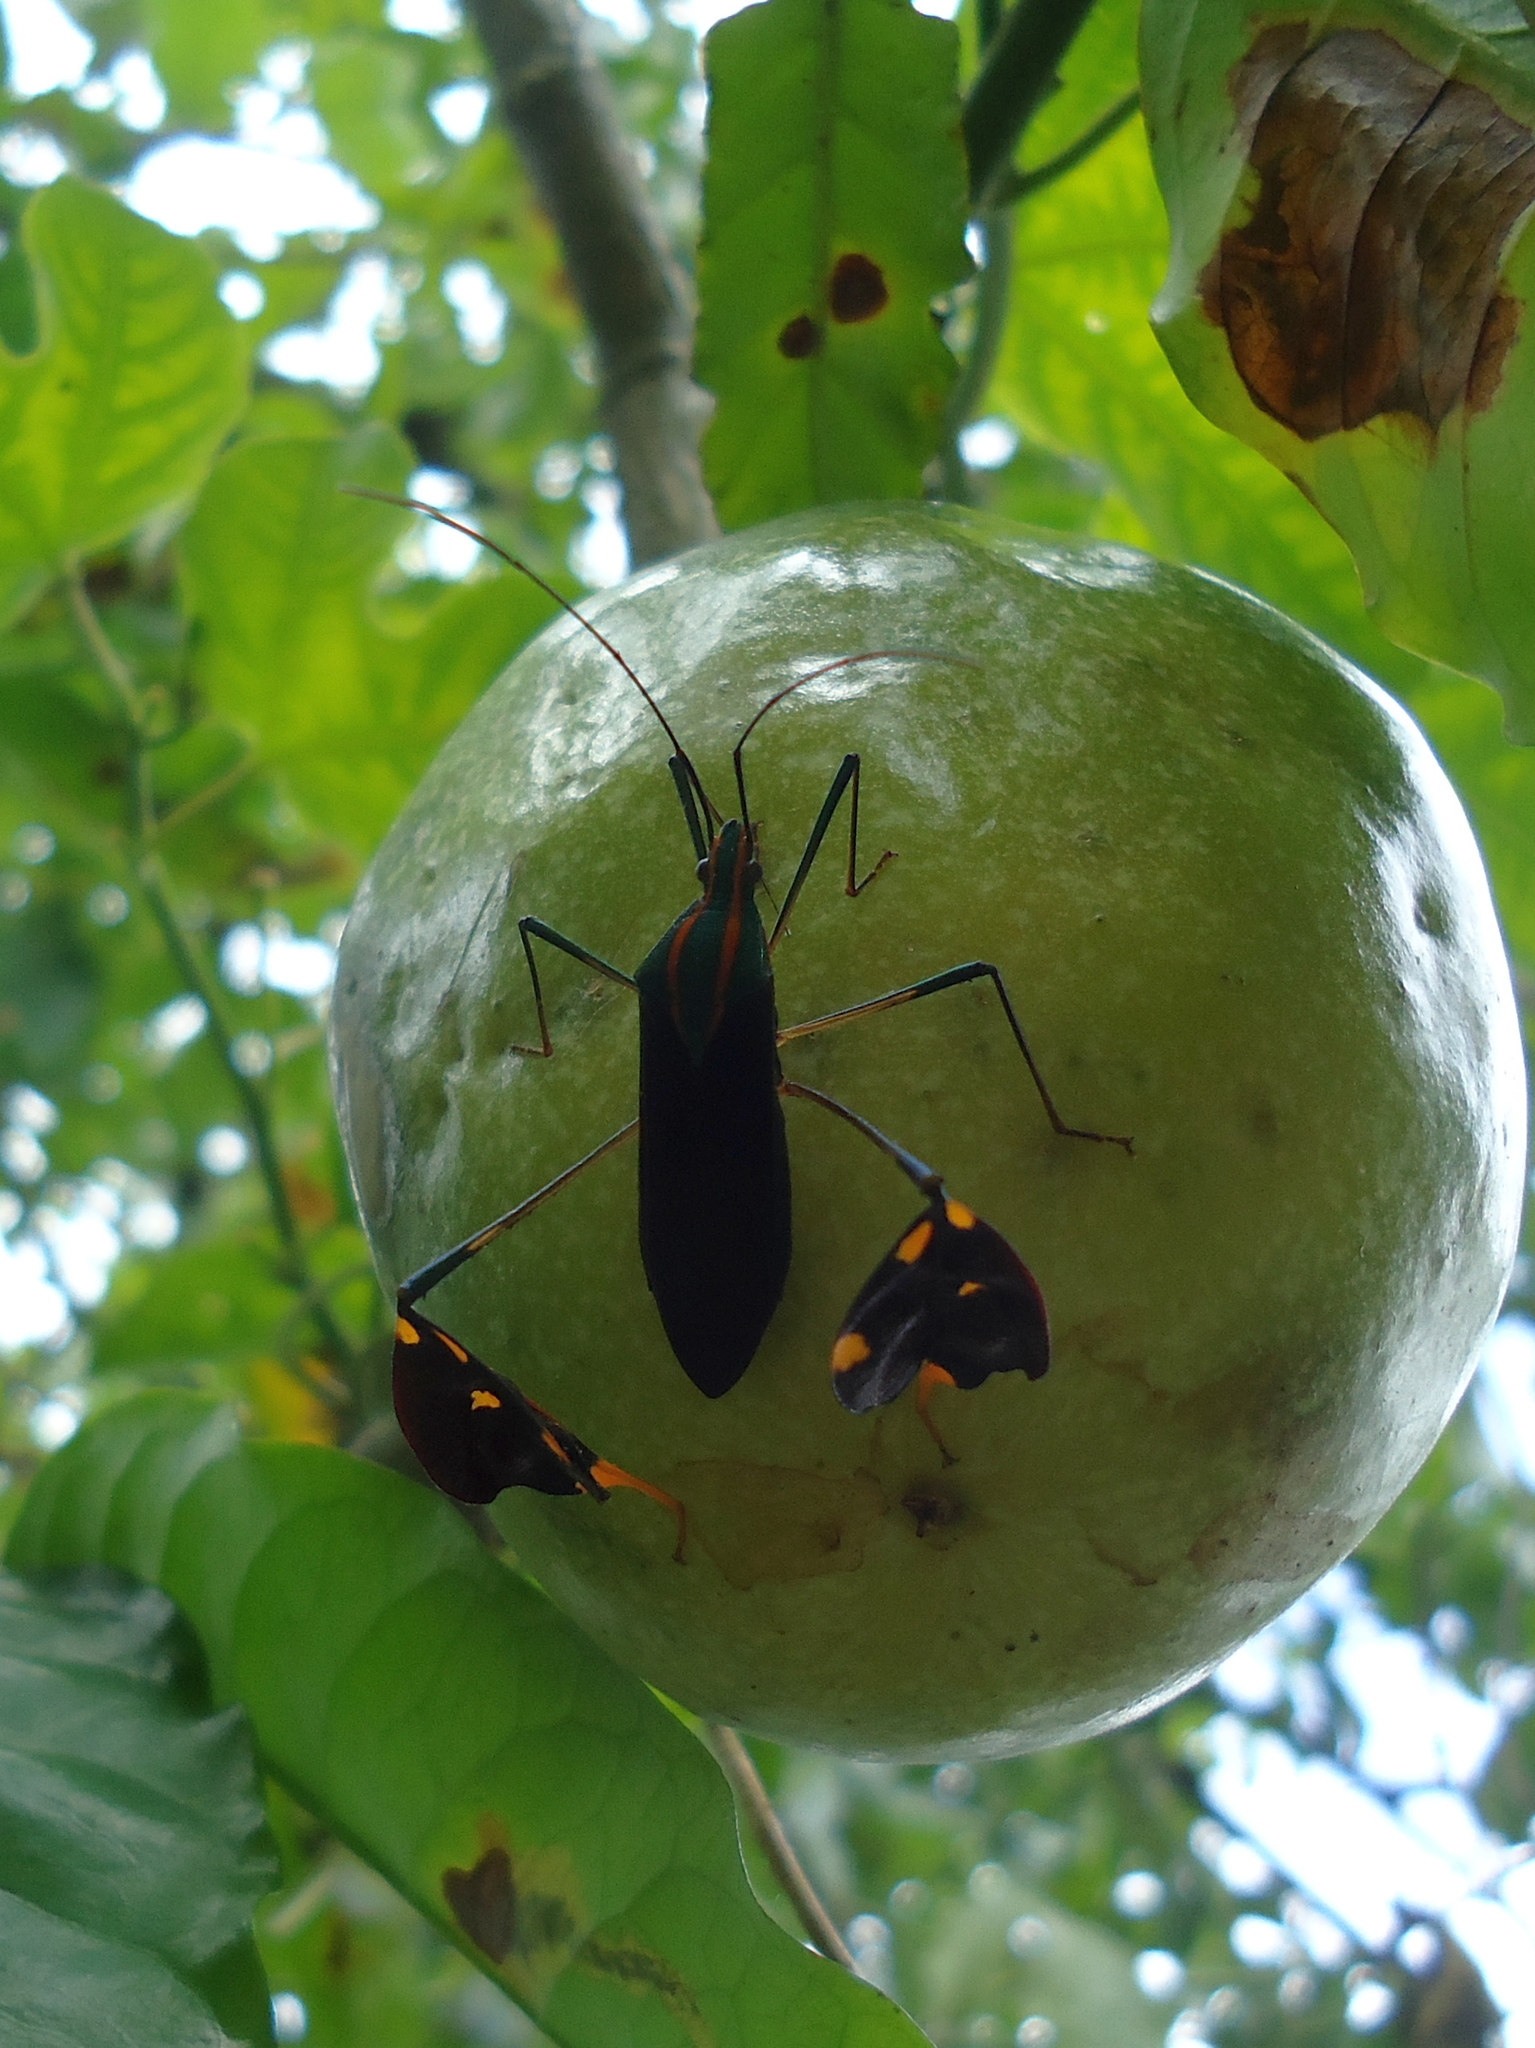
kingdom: Animalia
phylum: Arthropoda
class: Insecta
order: Hemiptera
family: Coreidae
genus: Diactor
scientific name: Diactor bilineatus
